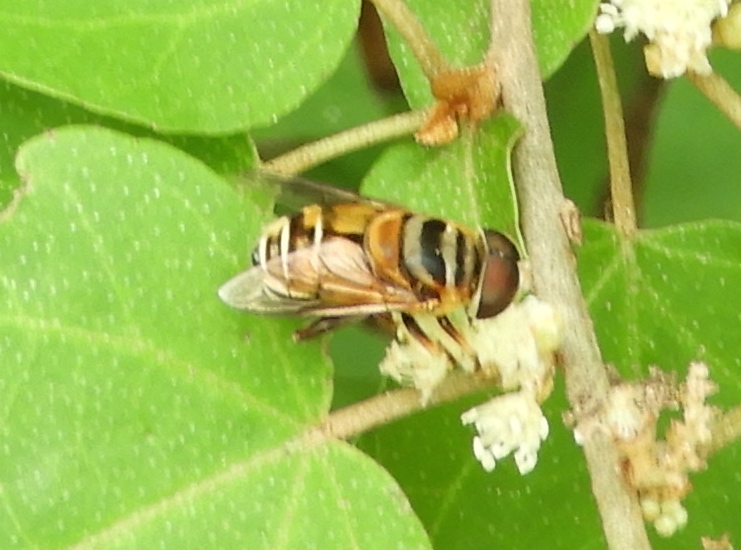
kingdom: Animalia
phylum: Arthropoda
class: Insecta
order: Diptera
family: Syrphidae
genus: Palpada
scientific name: Palpada vinetorum
